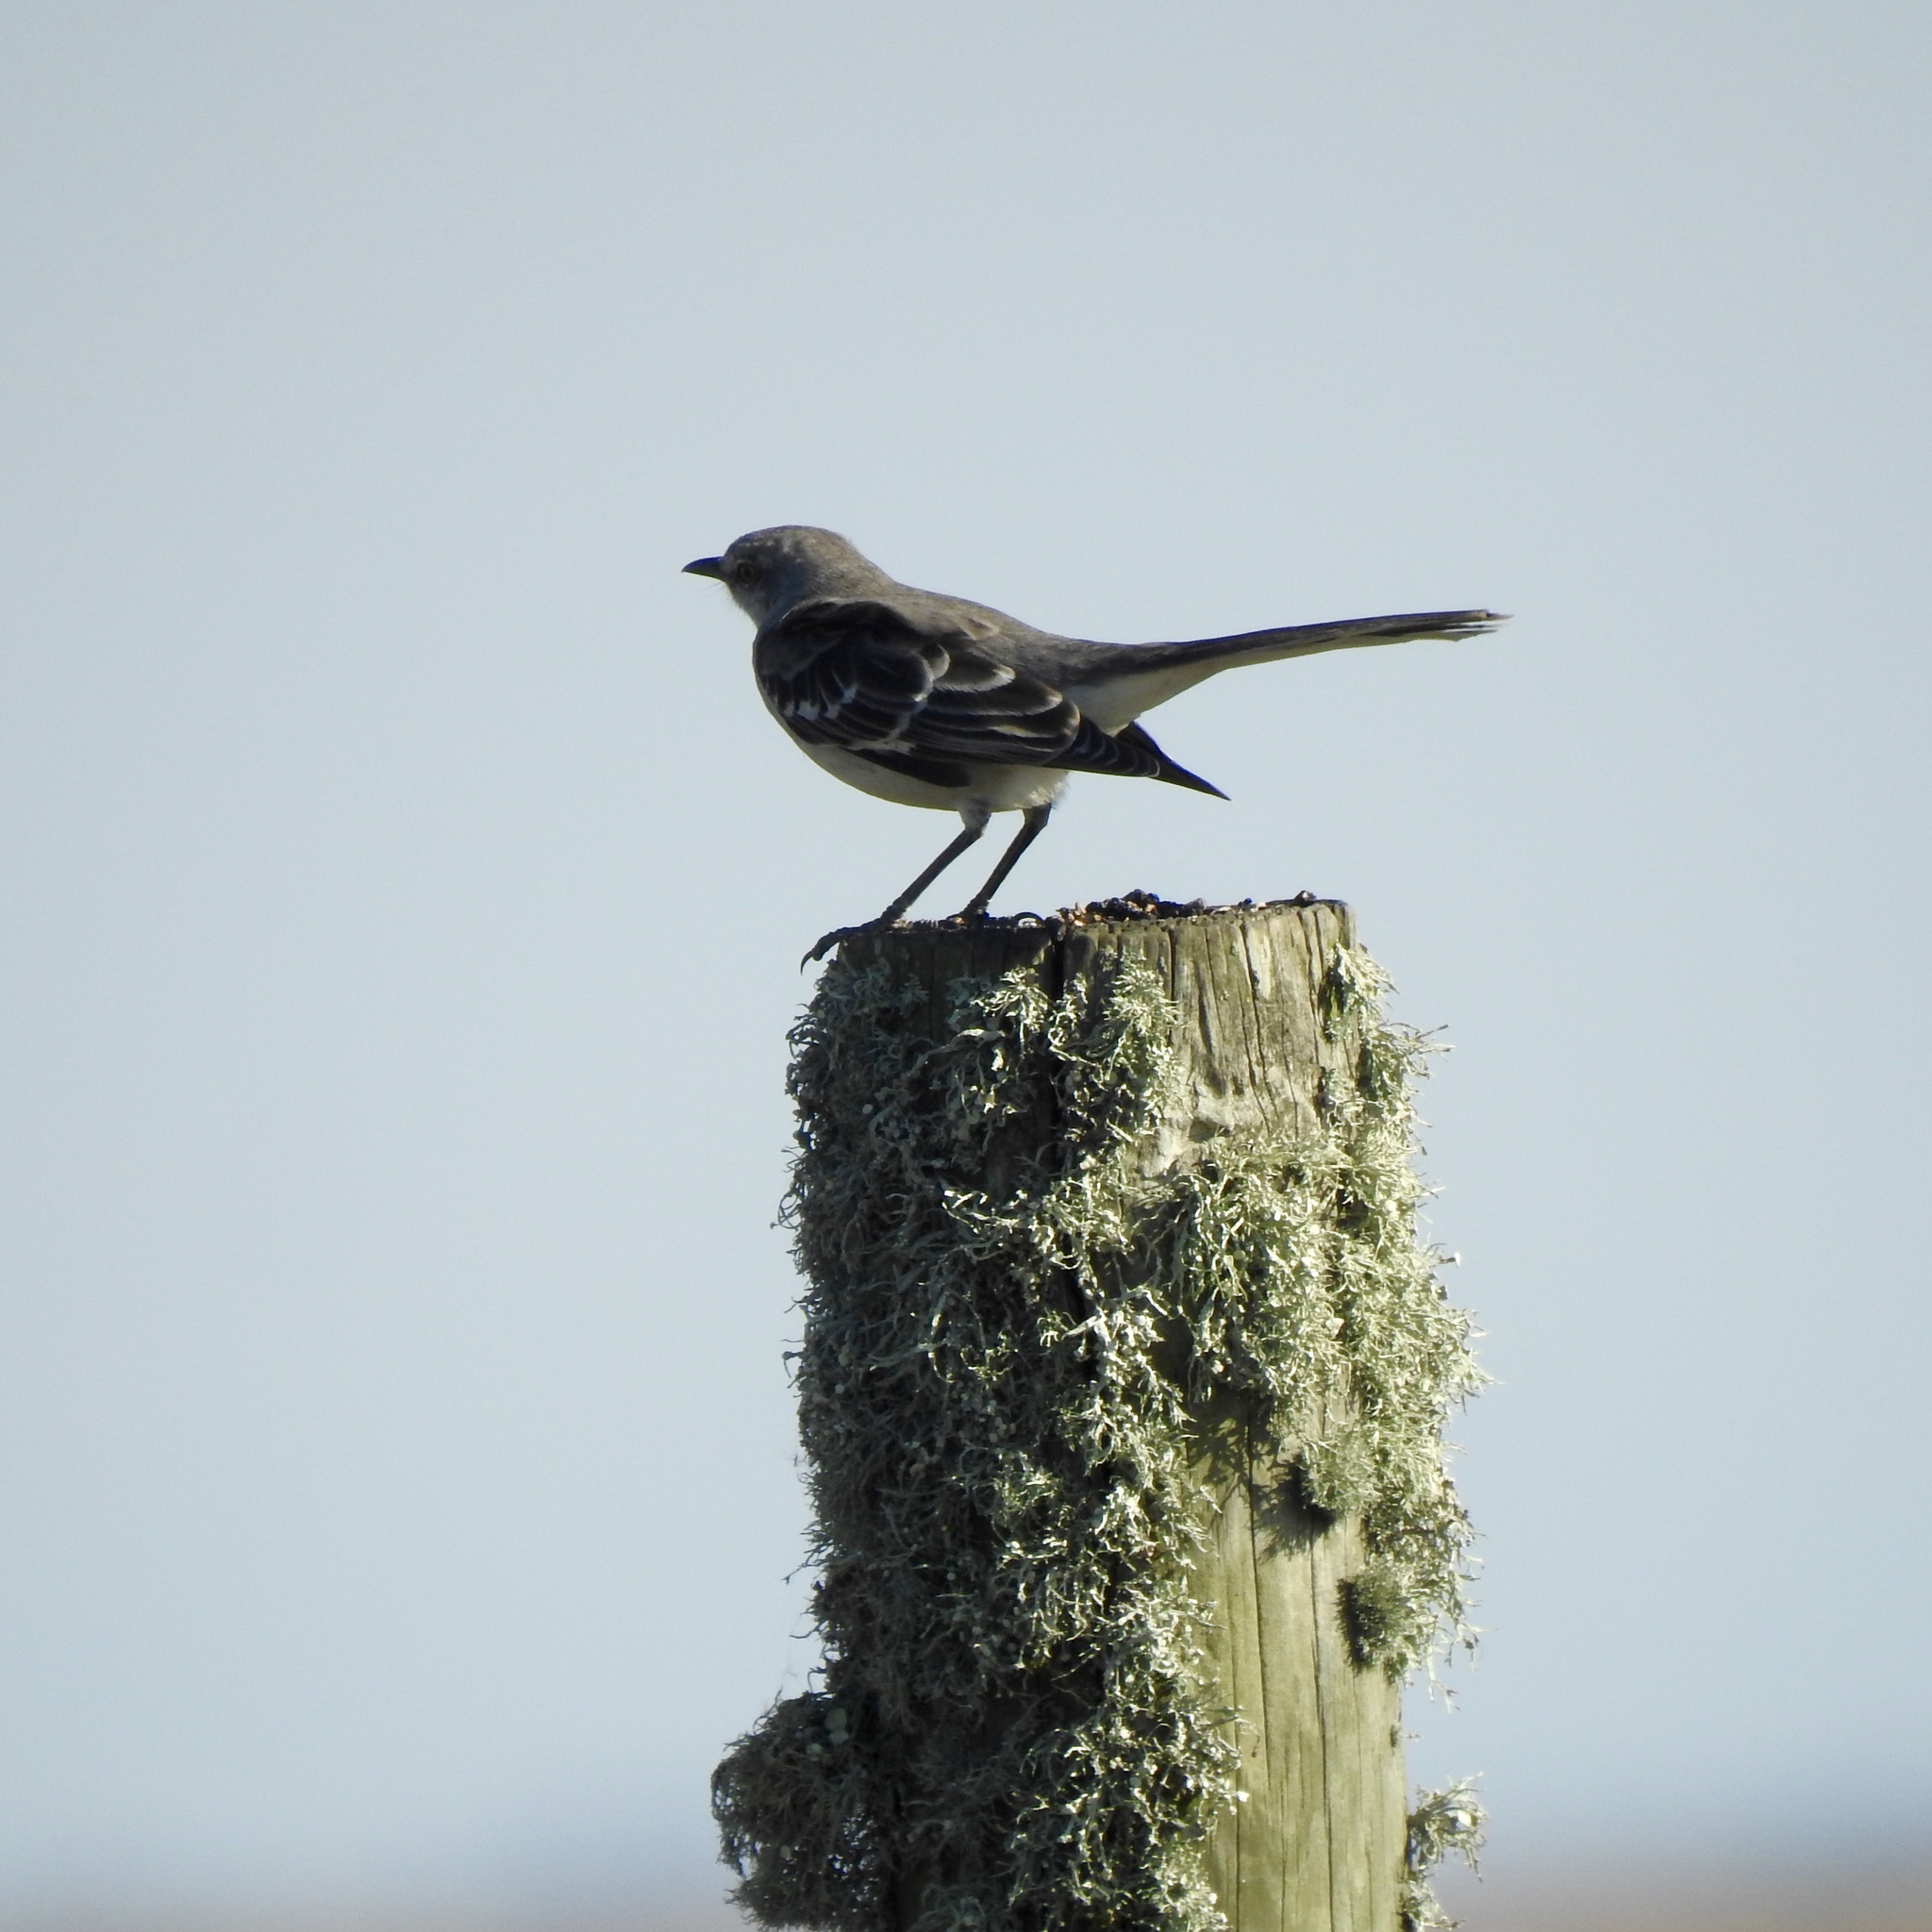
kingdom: Animalia
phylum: Chordata
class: Aves
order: Passeriformes
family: Mimidae
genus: Mimus
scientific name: Mimus polyglottos
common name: Northern mockingbird
